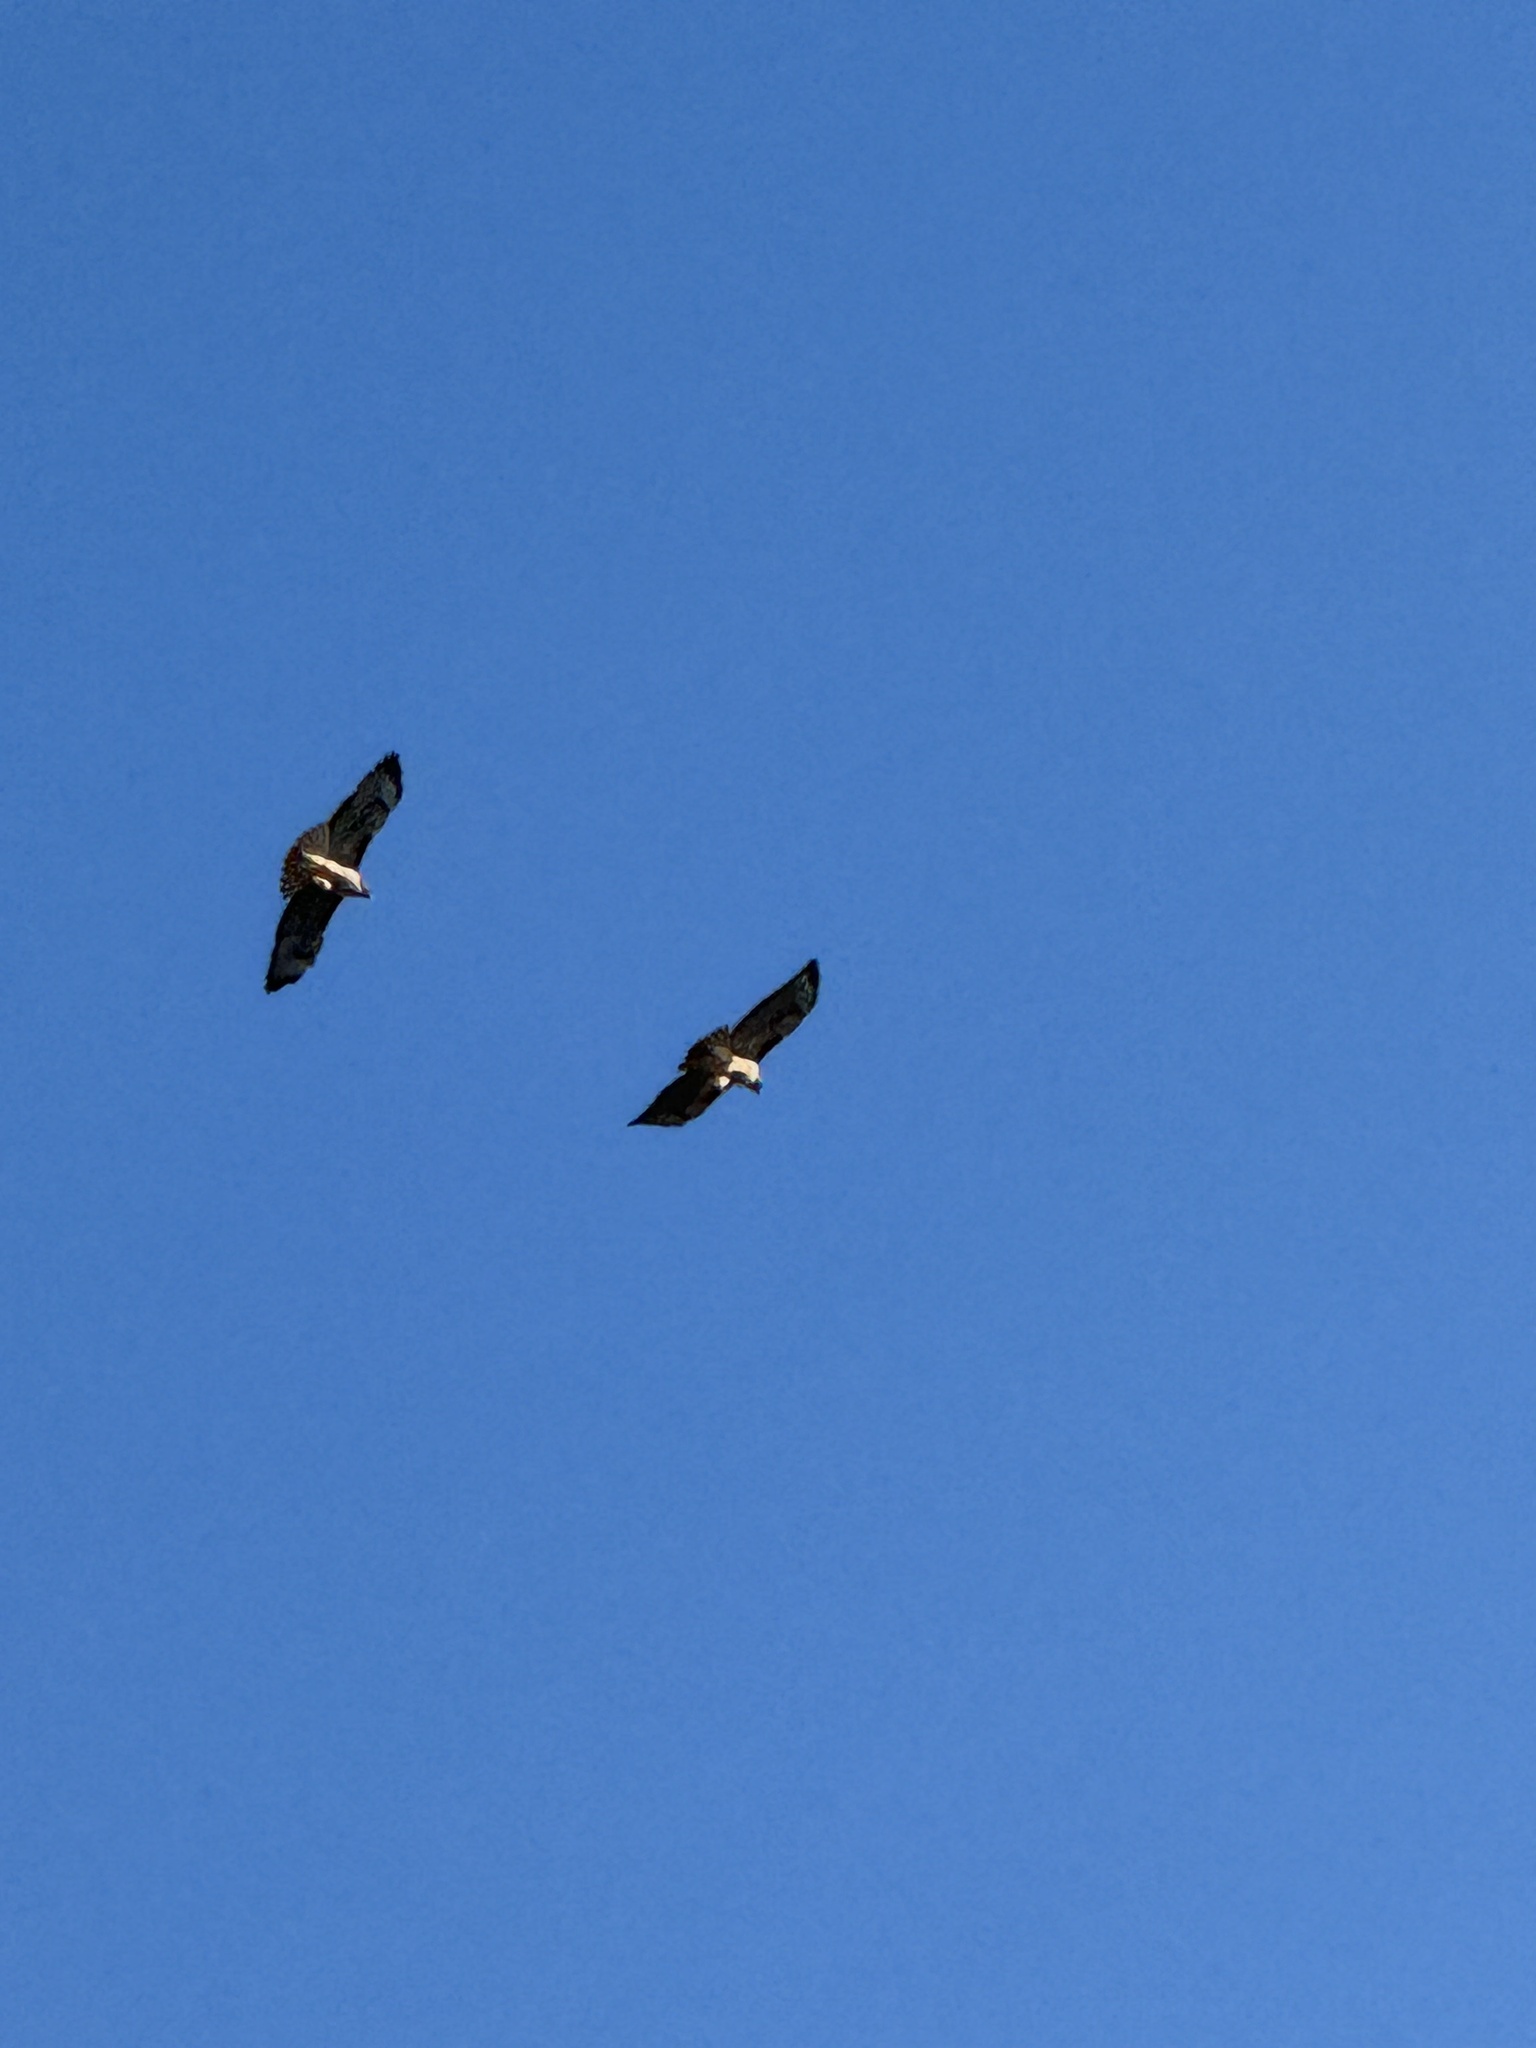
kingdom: Animalia
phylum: Chordata
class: Aves
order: Accipitriformes
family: Accipitridae
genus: Buteo
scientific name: Buteo jamaicensis
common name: Red-tailed hawk
